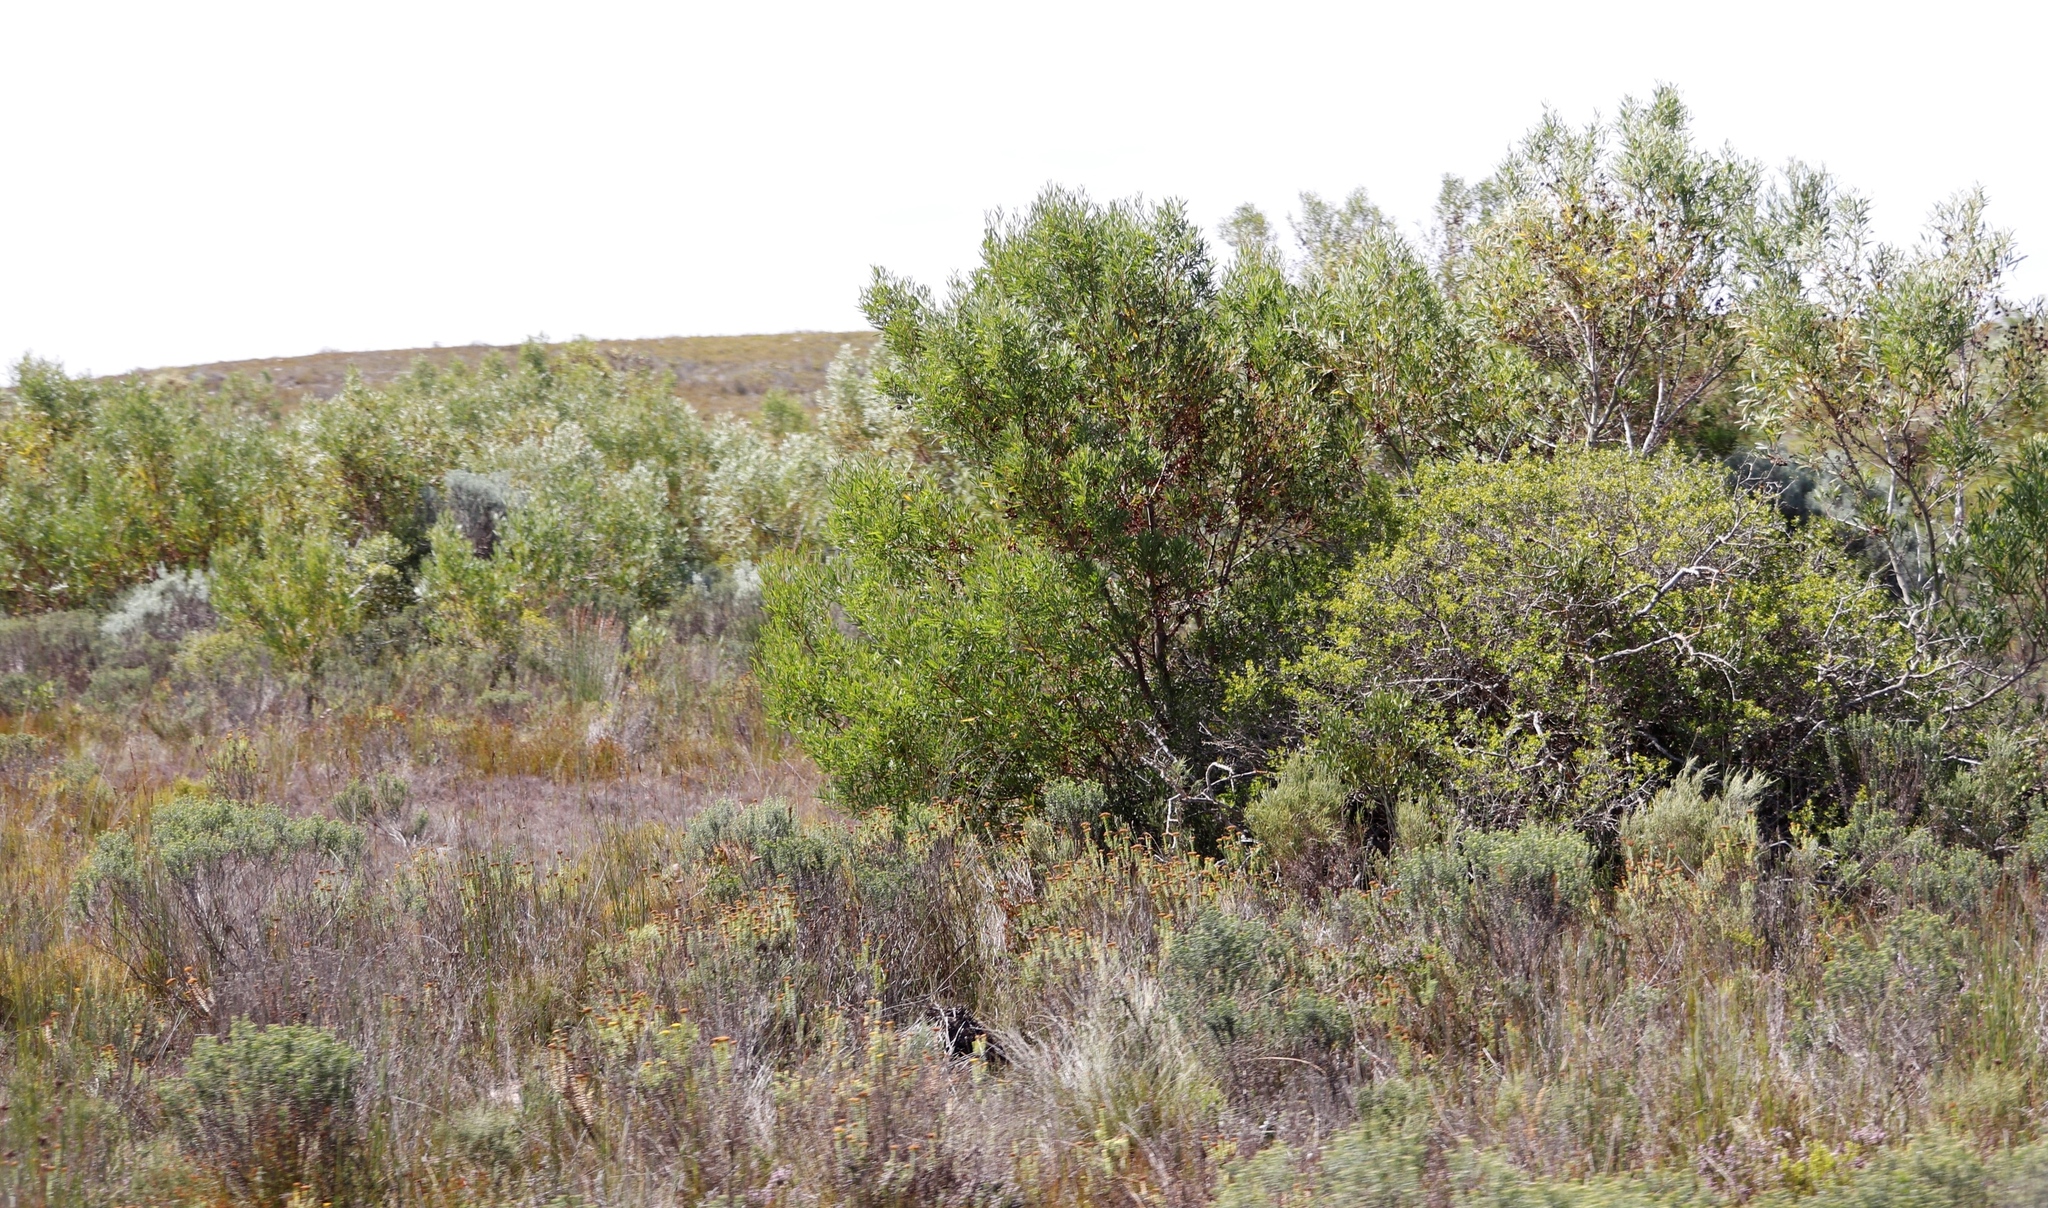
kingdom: Plantae
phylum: Tracheophyta
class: Magnoliopsida
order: Fabales
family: Fabaceae
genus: Acacia
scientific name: Acacia cyclops
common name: Coastal wattle
